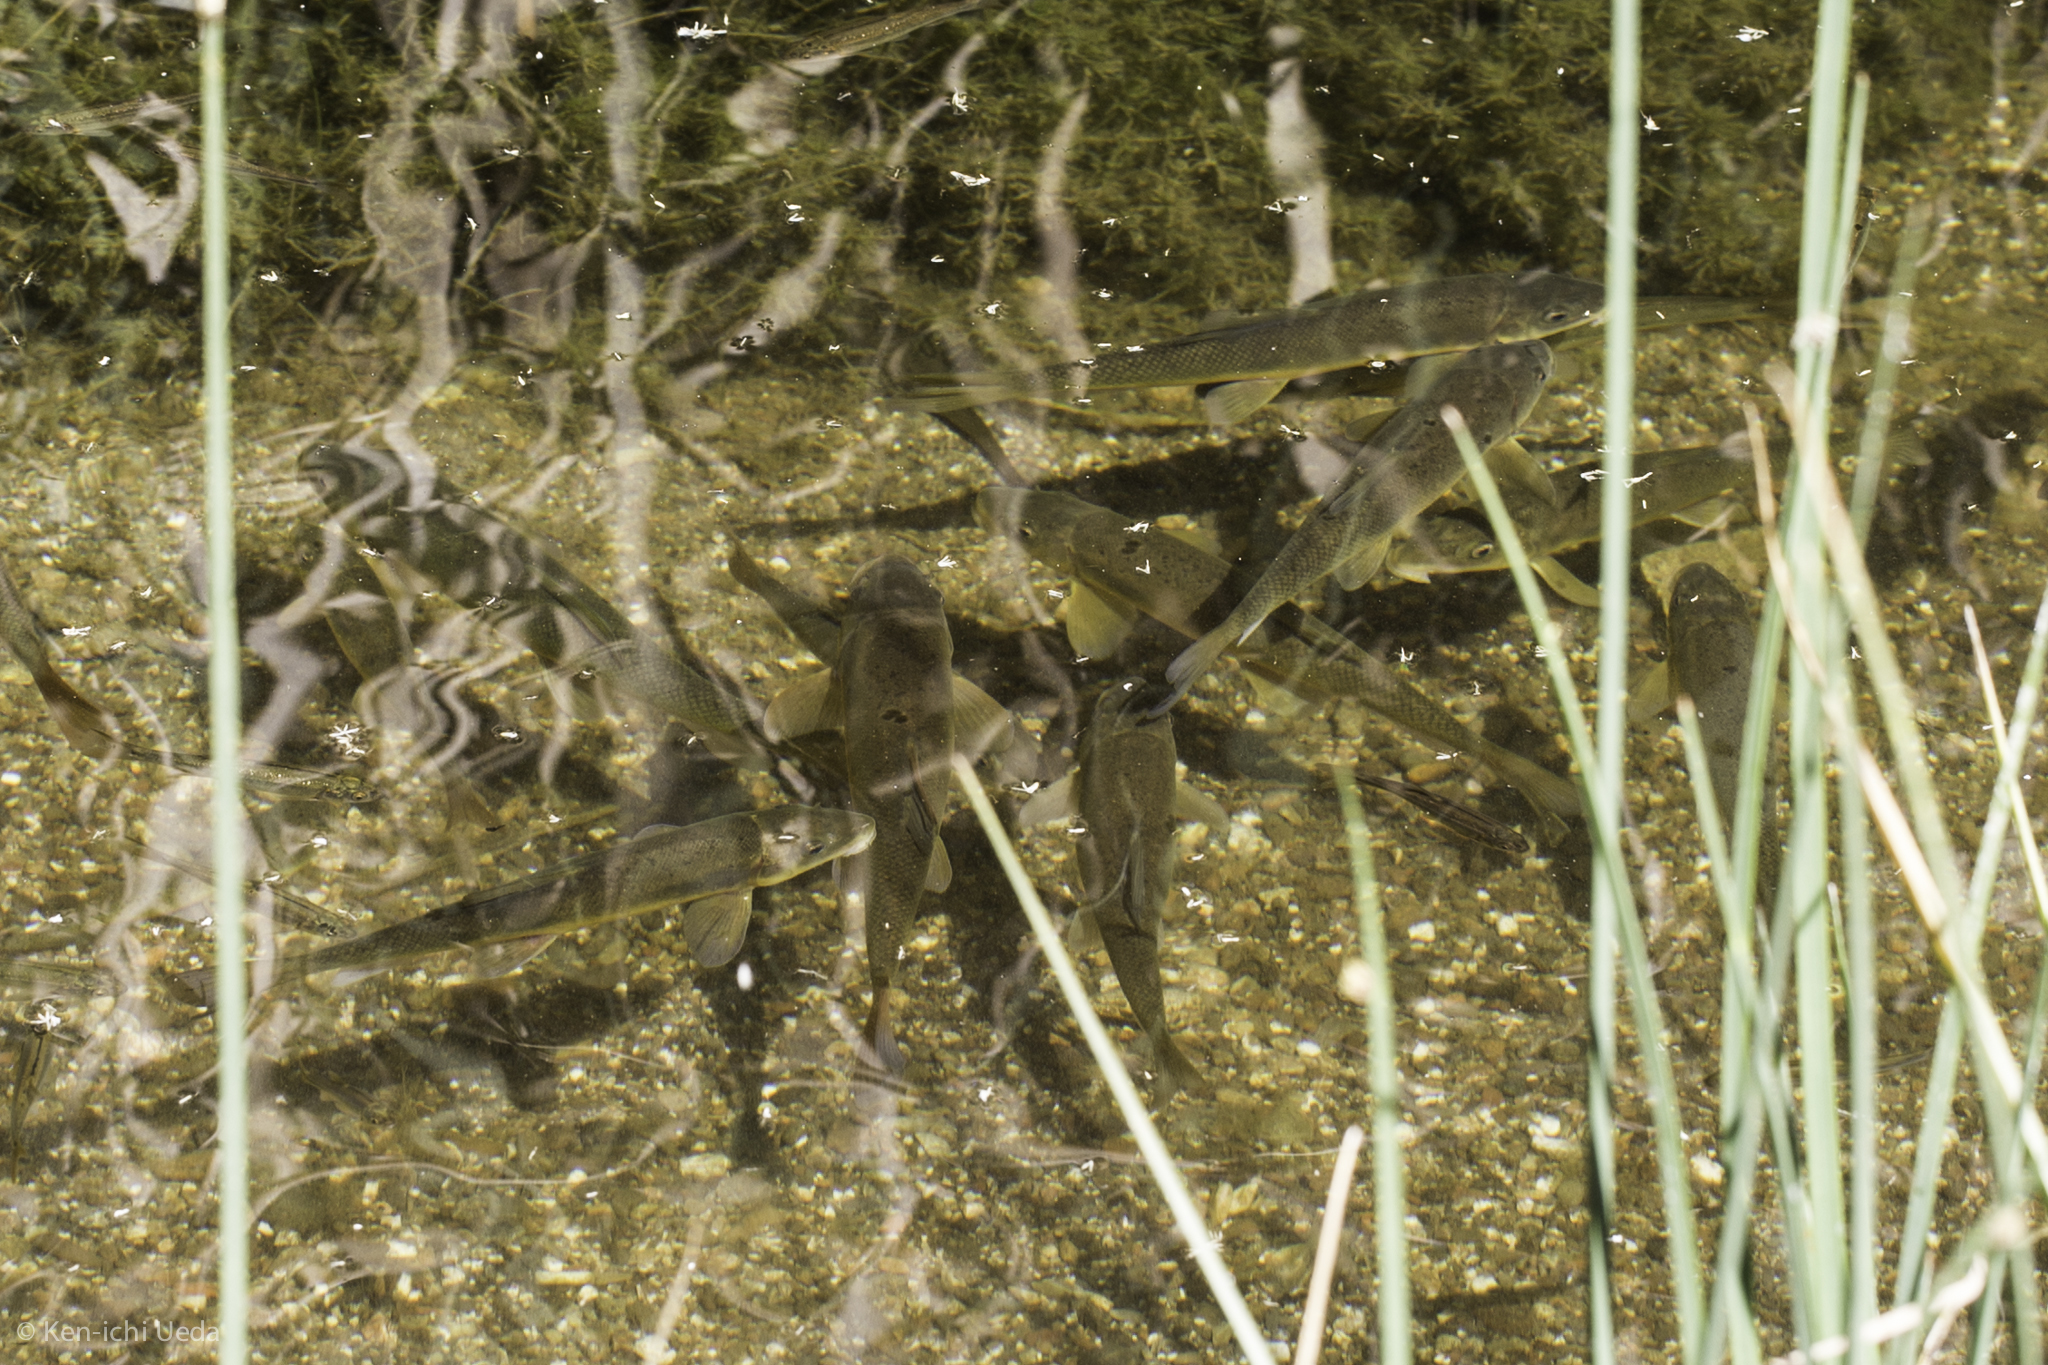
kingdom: Animalia
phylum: Chordata
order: Cypriniformes
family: Catostomidae
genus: Catostomus
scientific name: Catostomus occidentalis
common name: Goose lake sucker
